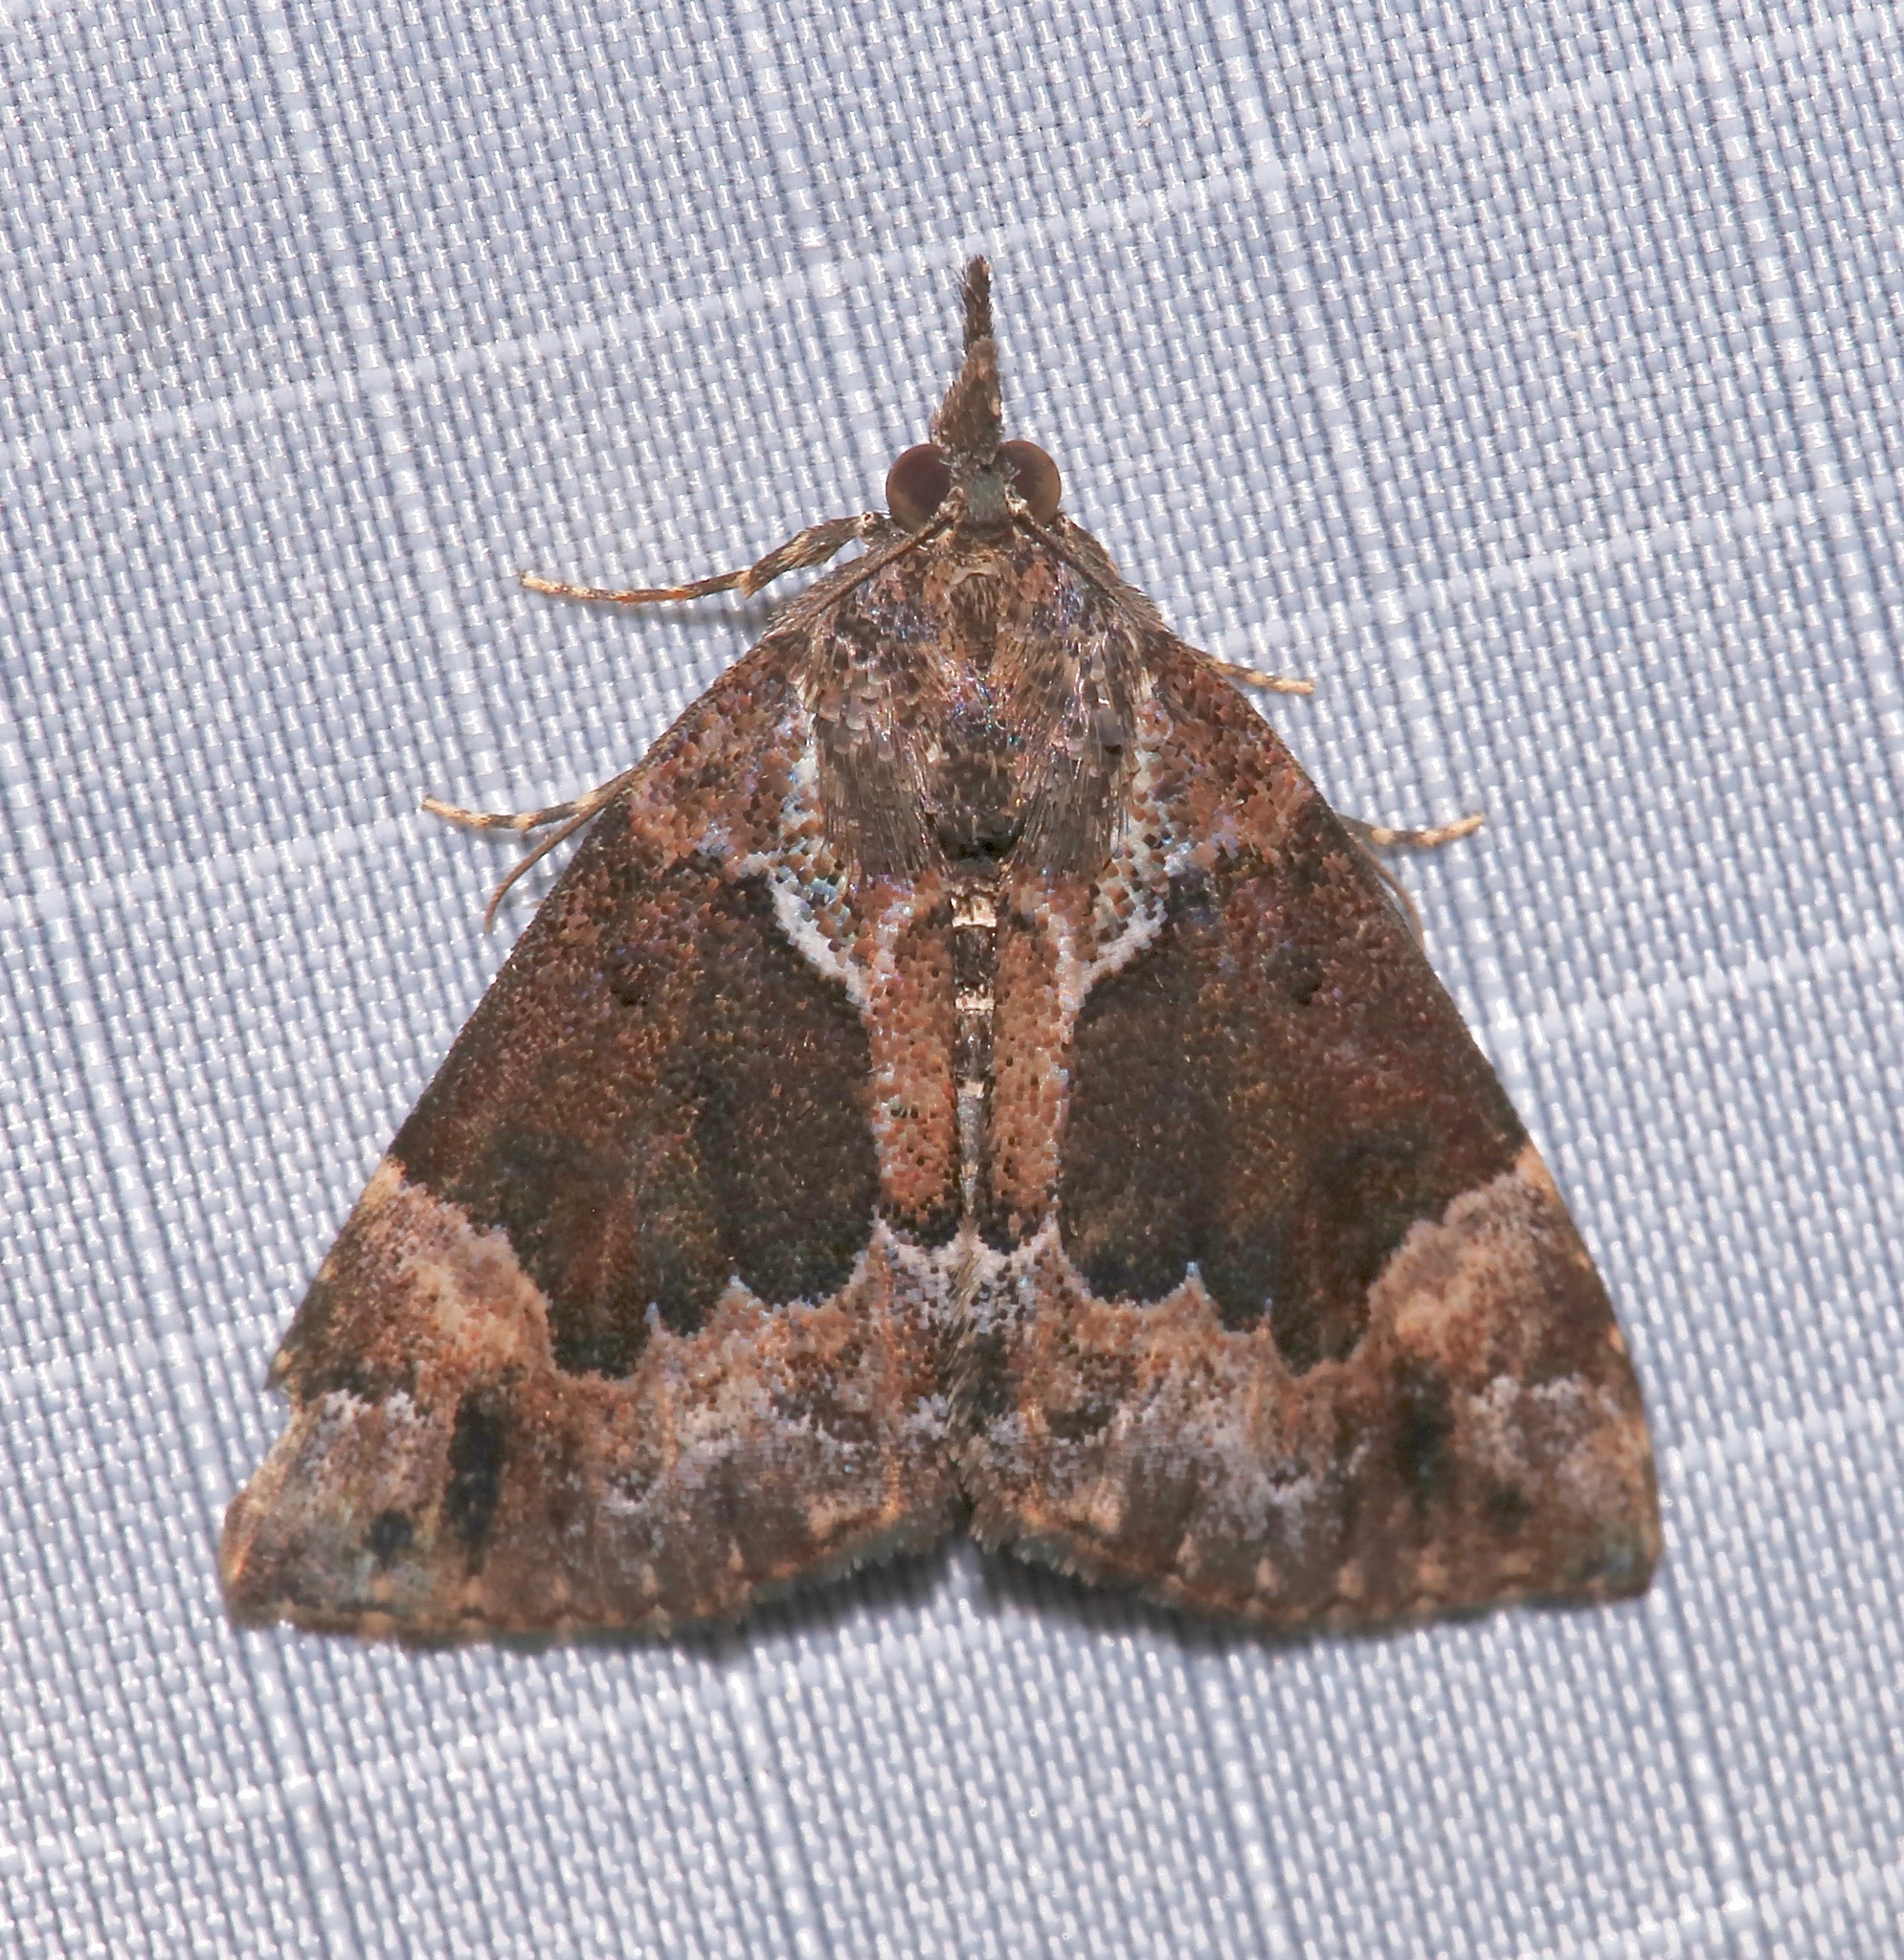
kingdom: Animalia
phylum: Arthropoda
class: Insecta
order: Lepidoptera
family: Erebidae
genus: Hypena
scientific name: Hypena palparia
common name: Mottled bomolocha moth
